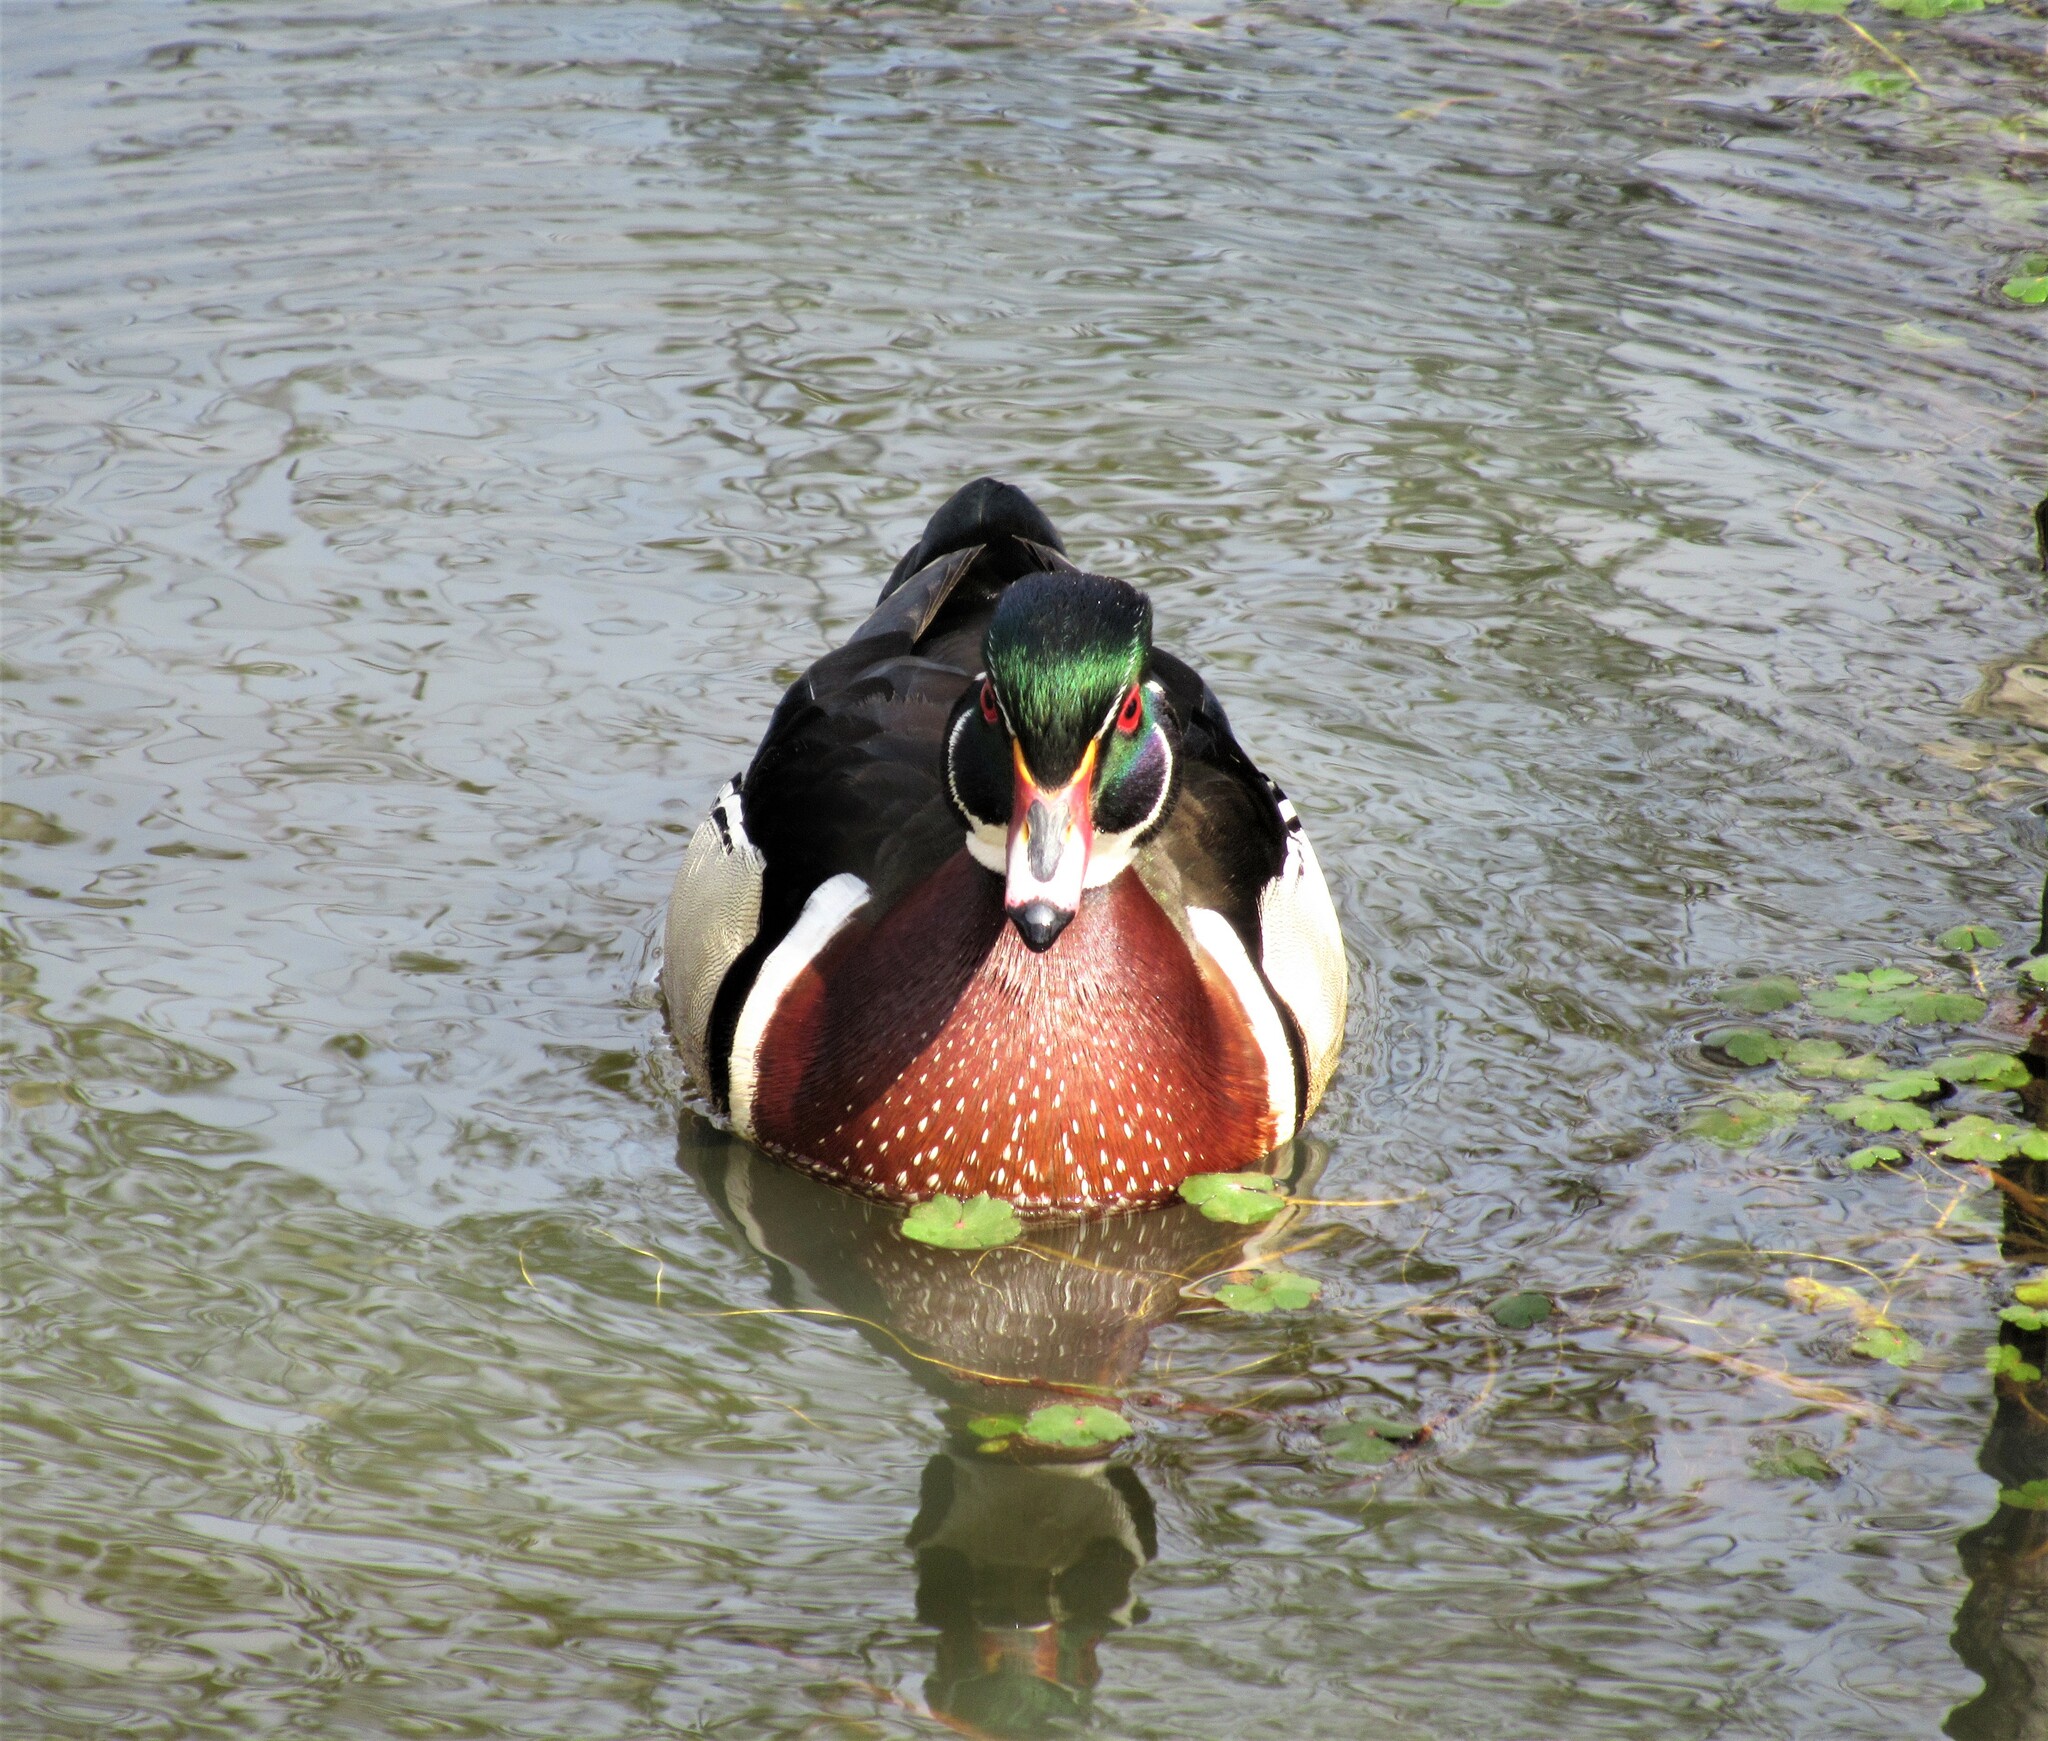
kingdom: Animalia
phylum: Chordata
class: Aves
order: Anseriformes
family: Anatidae
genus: Aix
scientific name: Aix sponsa
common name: Wood duck
